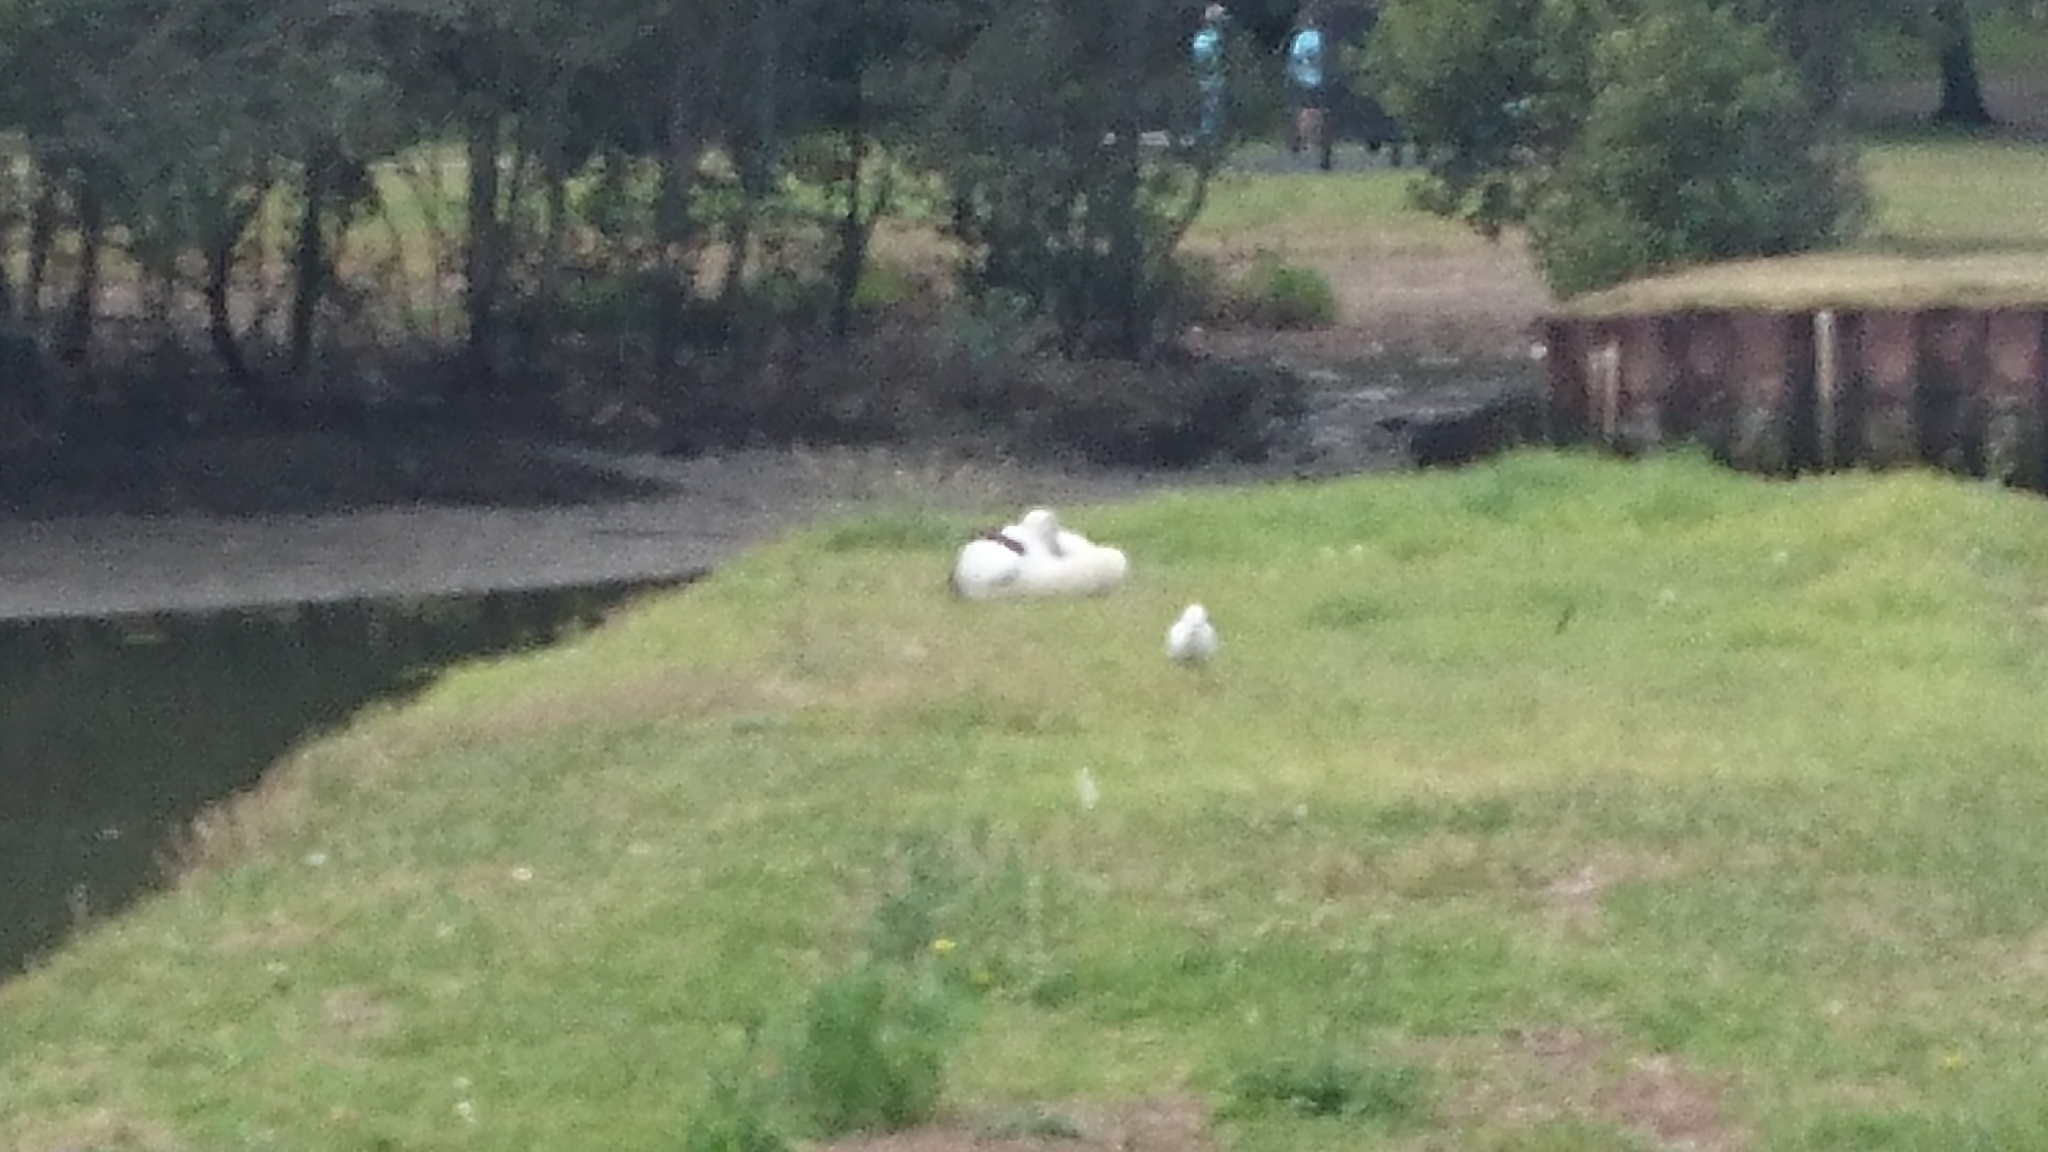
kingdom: Animalia
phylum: Chordata
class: Aves
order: Pelecaniformes
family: Pelecanidae
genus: Pelecanus
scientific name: Pelecanus conspicillatus
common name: Australian pelican
